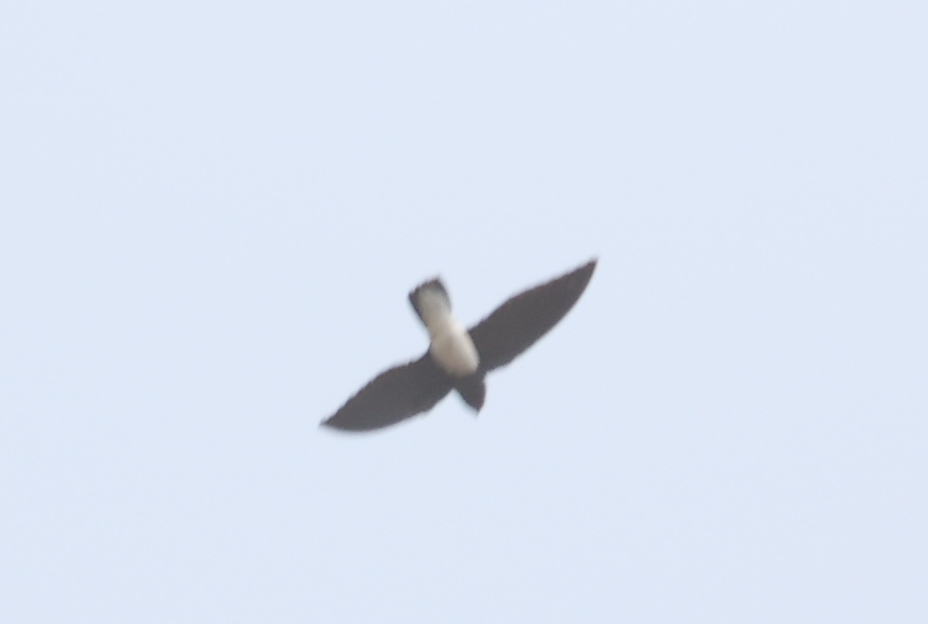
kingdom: Animalia
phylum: Chordata
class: Aves
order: Apodiformes
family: Apodidae
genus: Rhaphidura
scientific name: Rhaphidura sabini
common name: Sabine's spinetail
